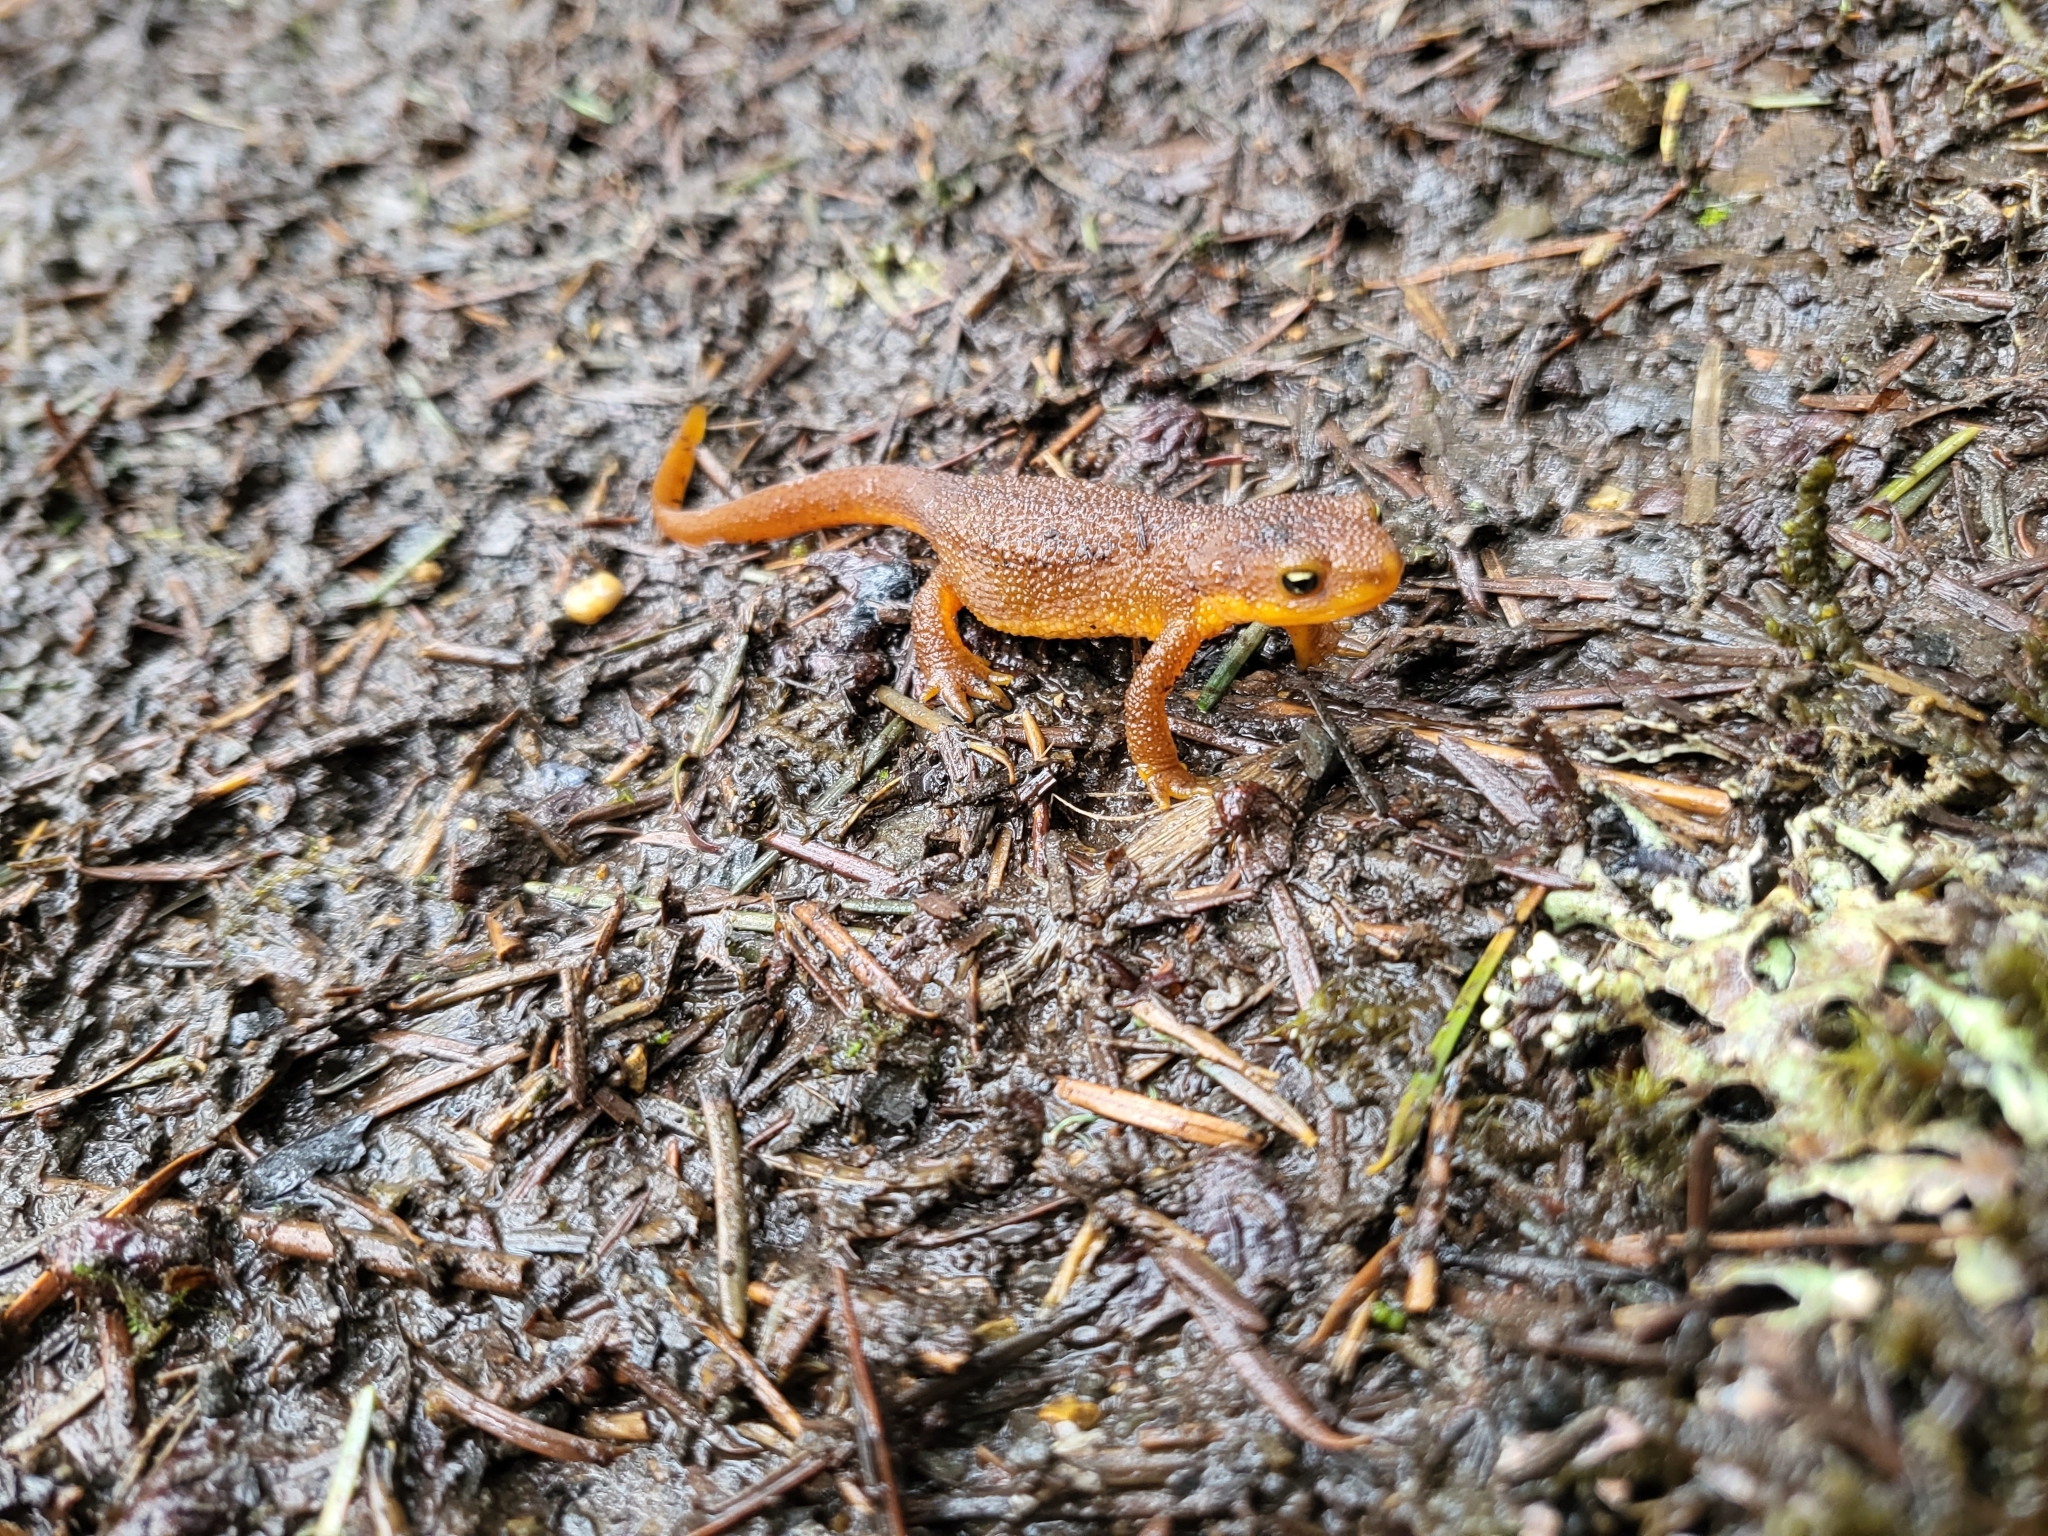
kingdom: Animalia
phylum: Chordata
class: Amphibia
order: Caudata
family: Salamandridae
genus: Taricha
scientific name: Taricha granulosa
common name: Roughskin newt
